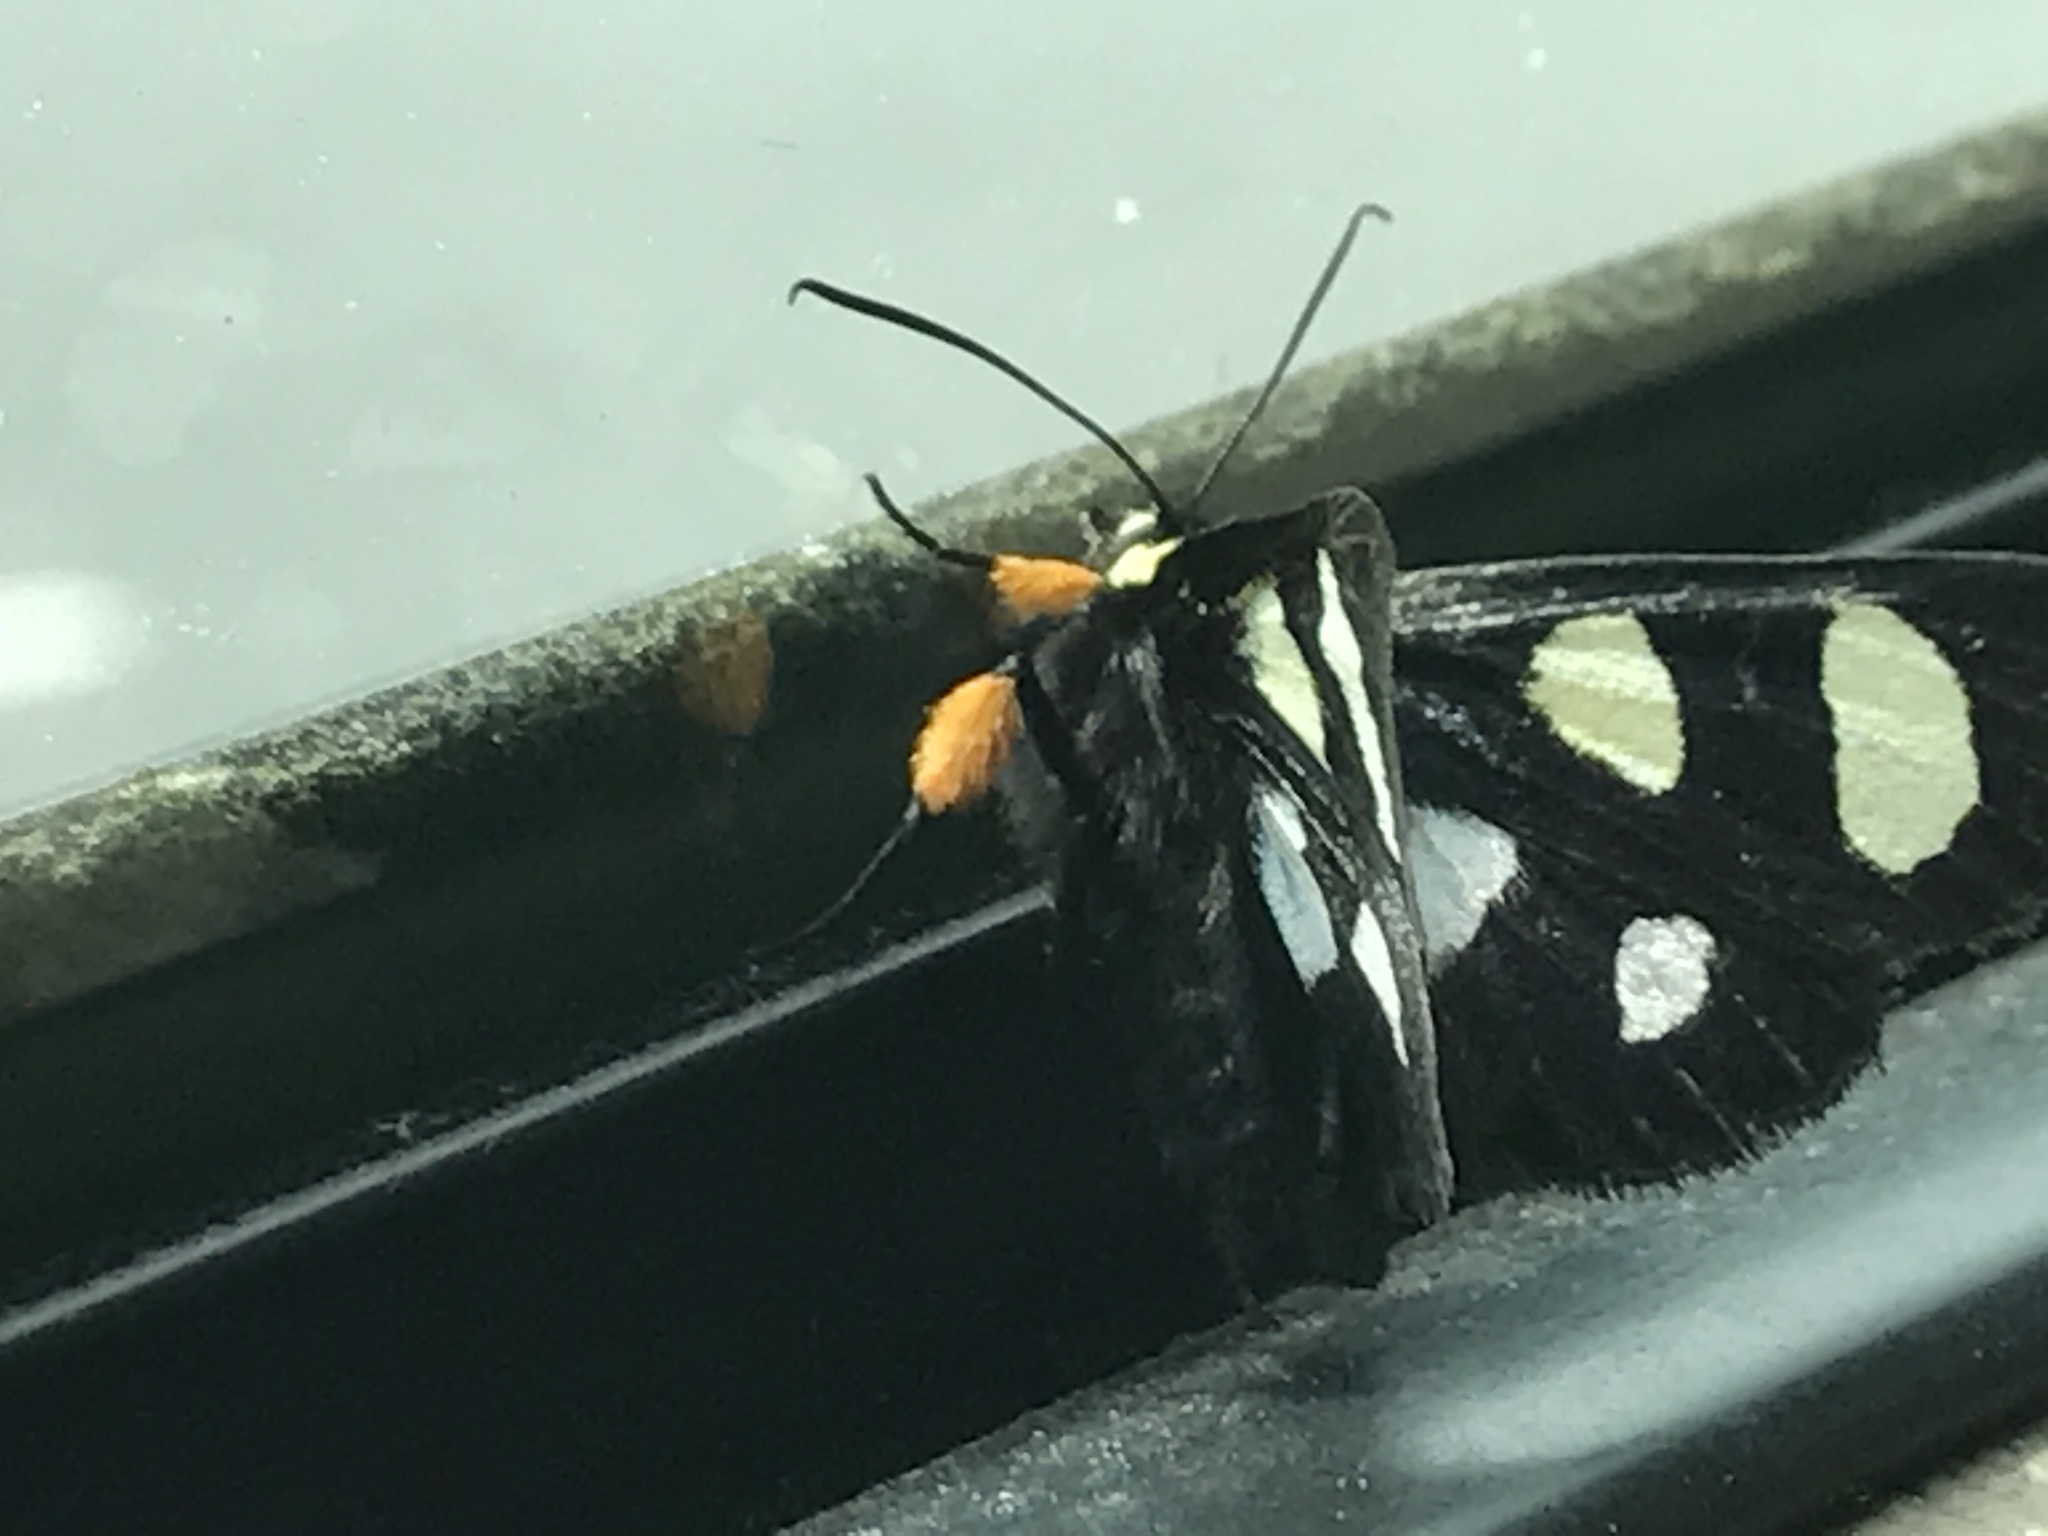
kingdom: Animalia
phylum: Arthropoda
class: Insecta
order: Lepidoptera
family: Noctuidae
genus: Alypia
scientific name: Alypia octomaculata
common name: Eight-spotted forester
